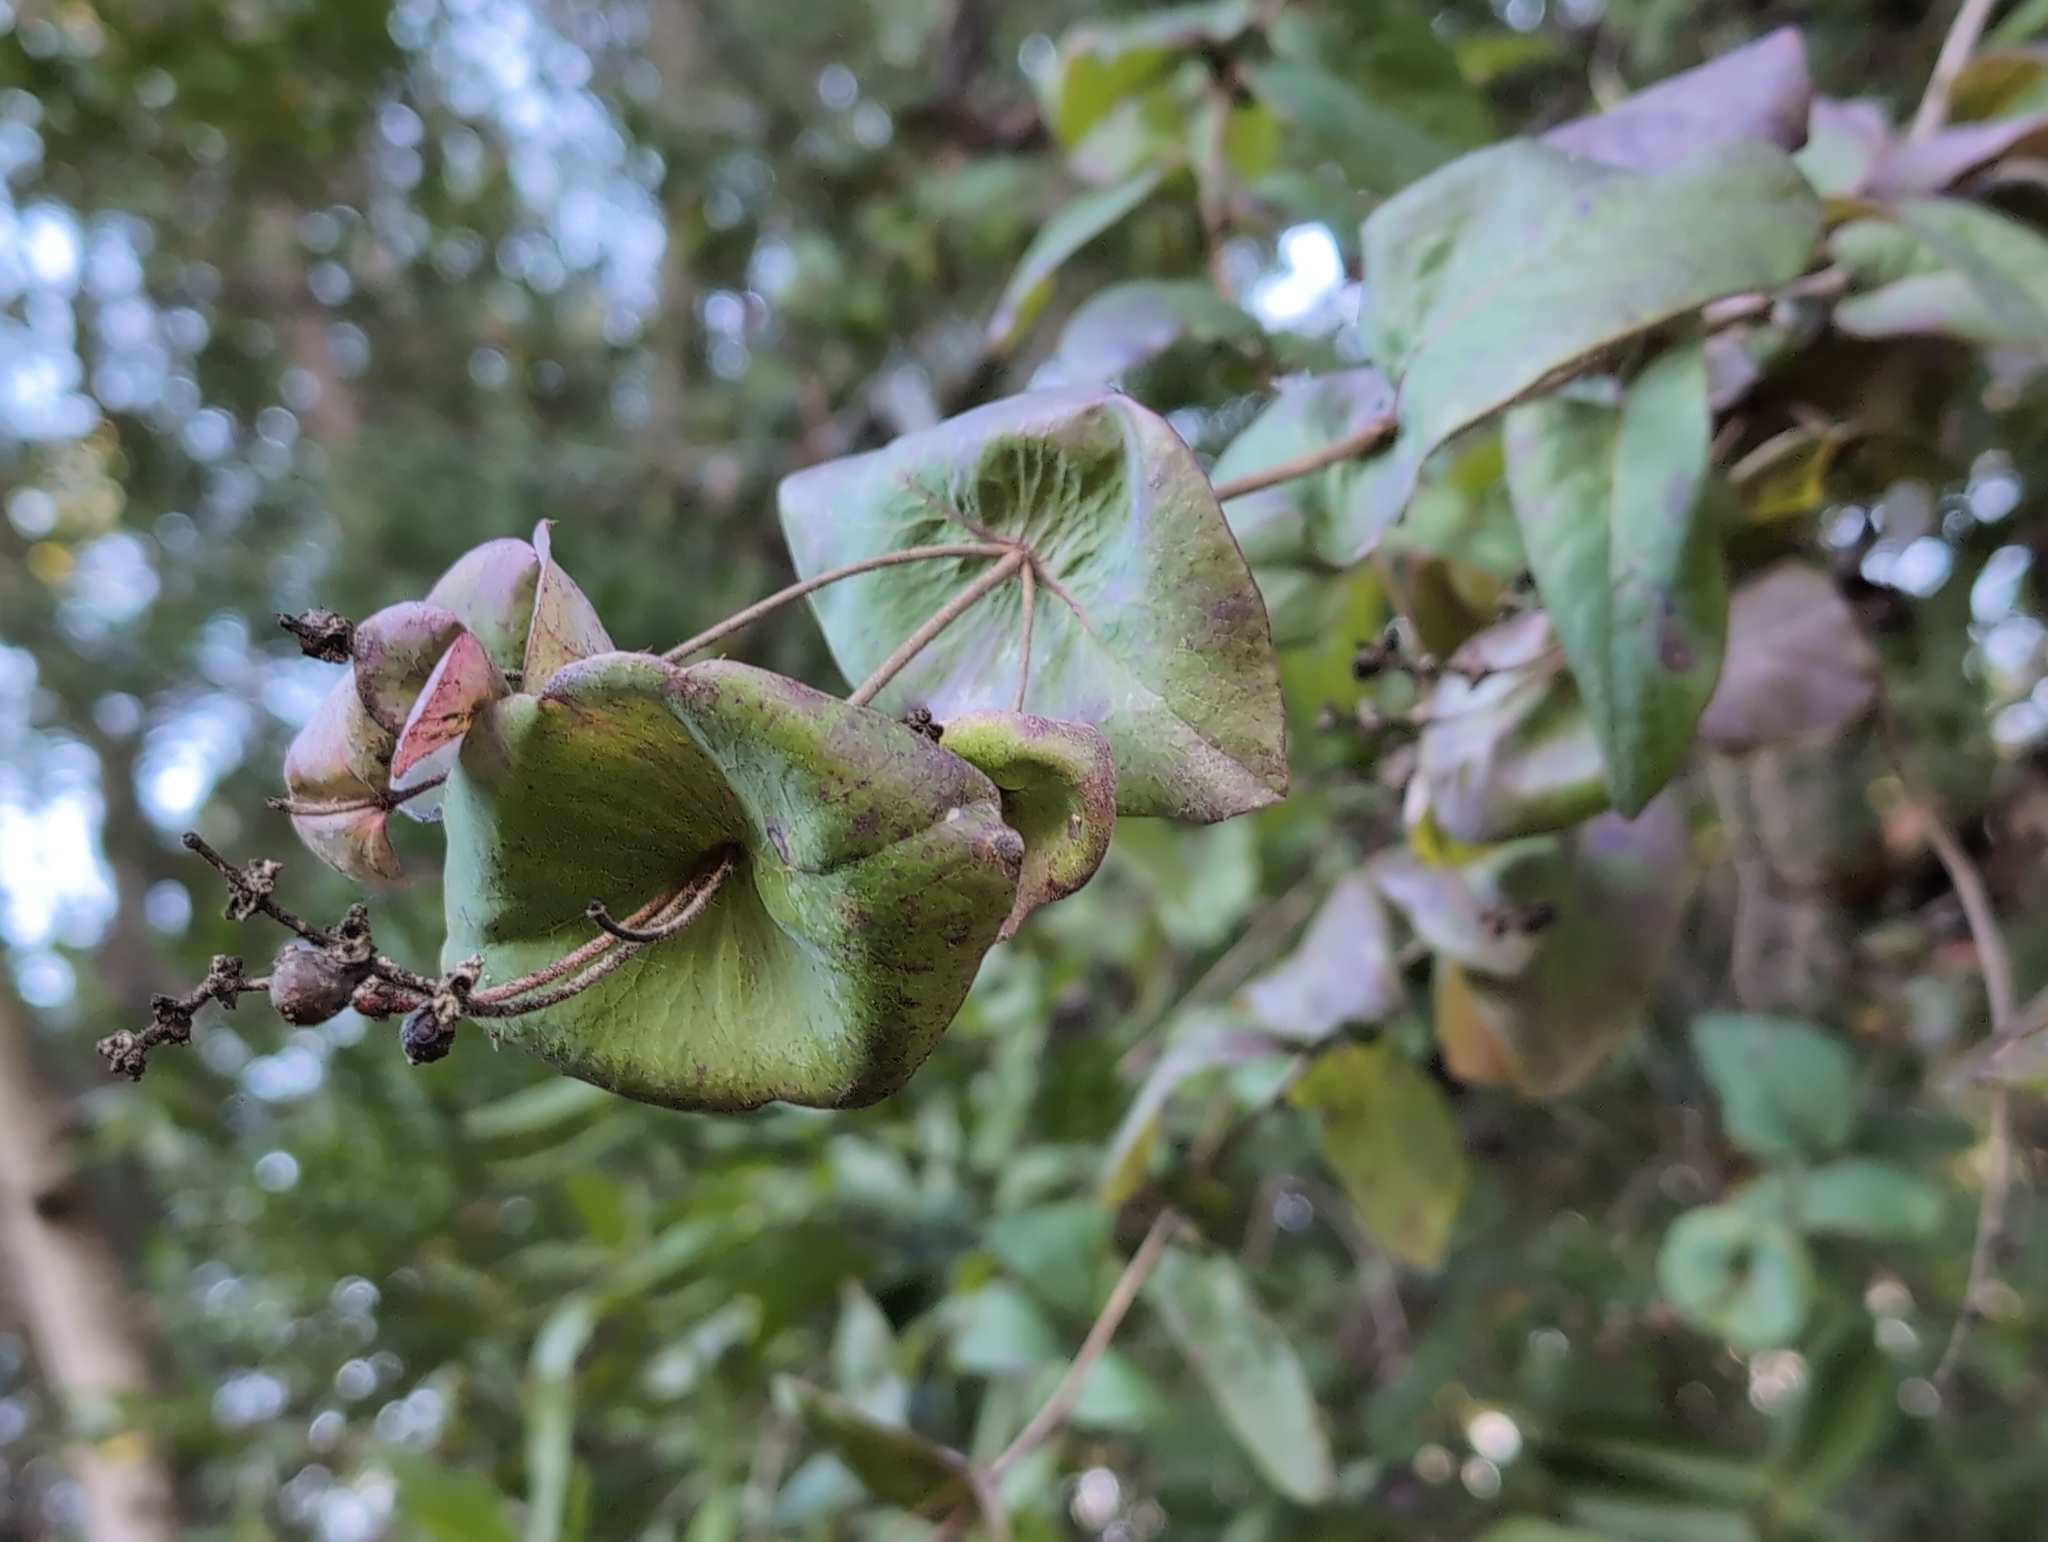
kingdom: Plantae
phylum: Tracheophyta
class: Magnoliopsida
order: Dipsacales
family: Caprifoliaceae
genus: Lonicera
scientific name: Lonicera hispidula
